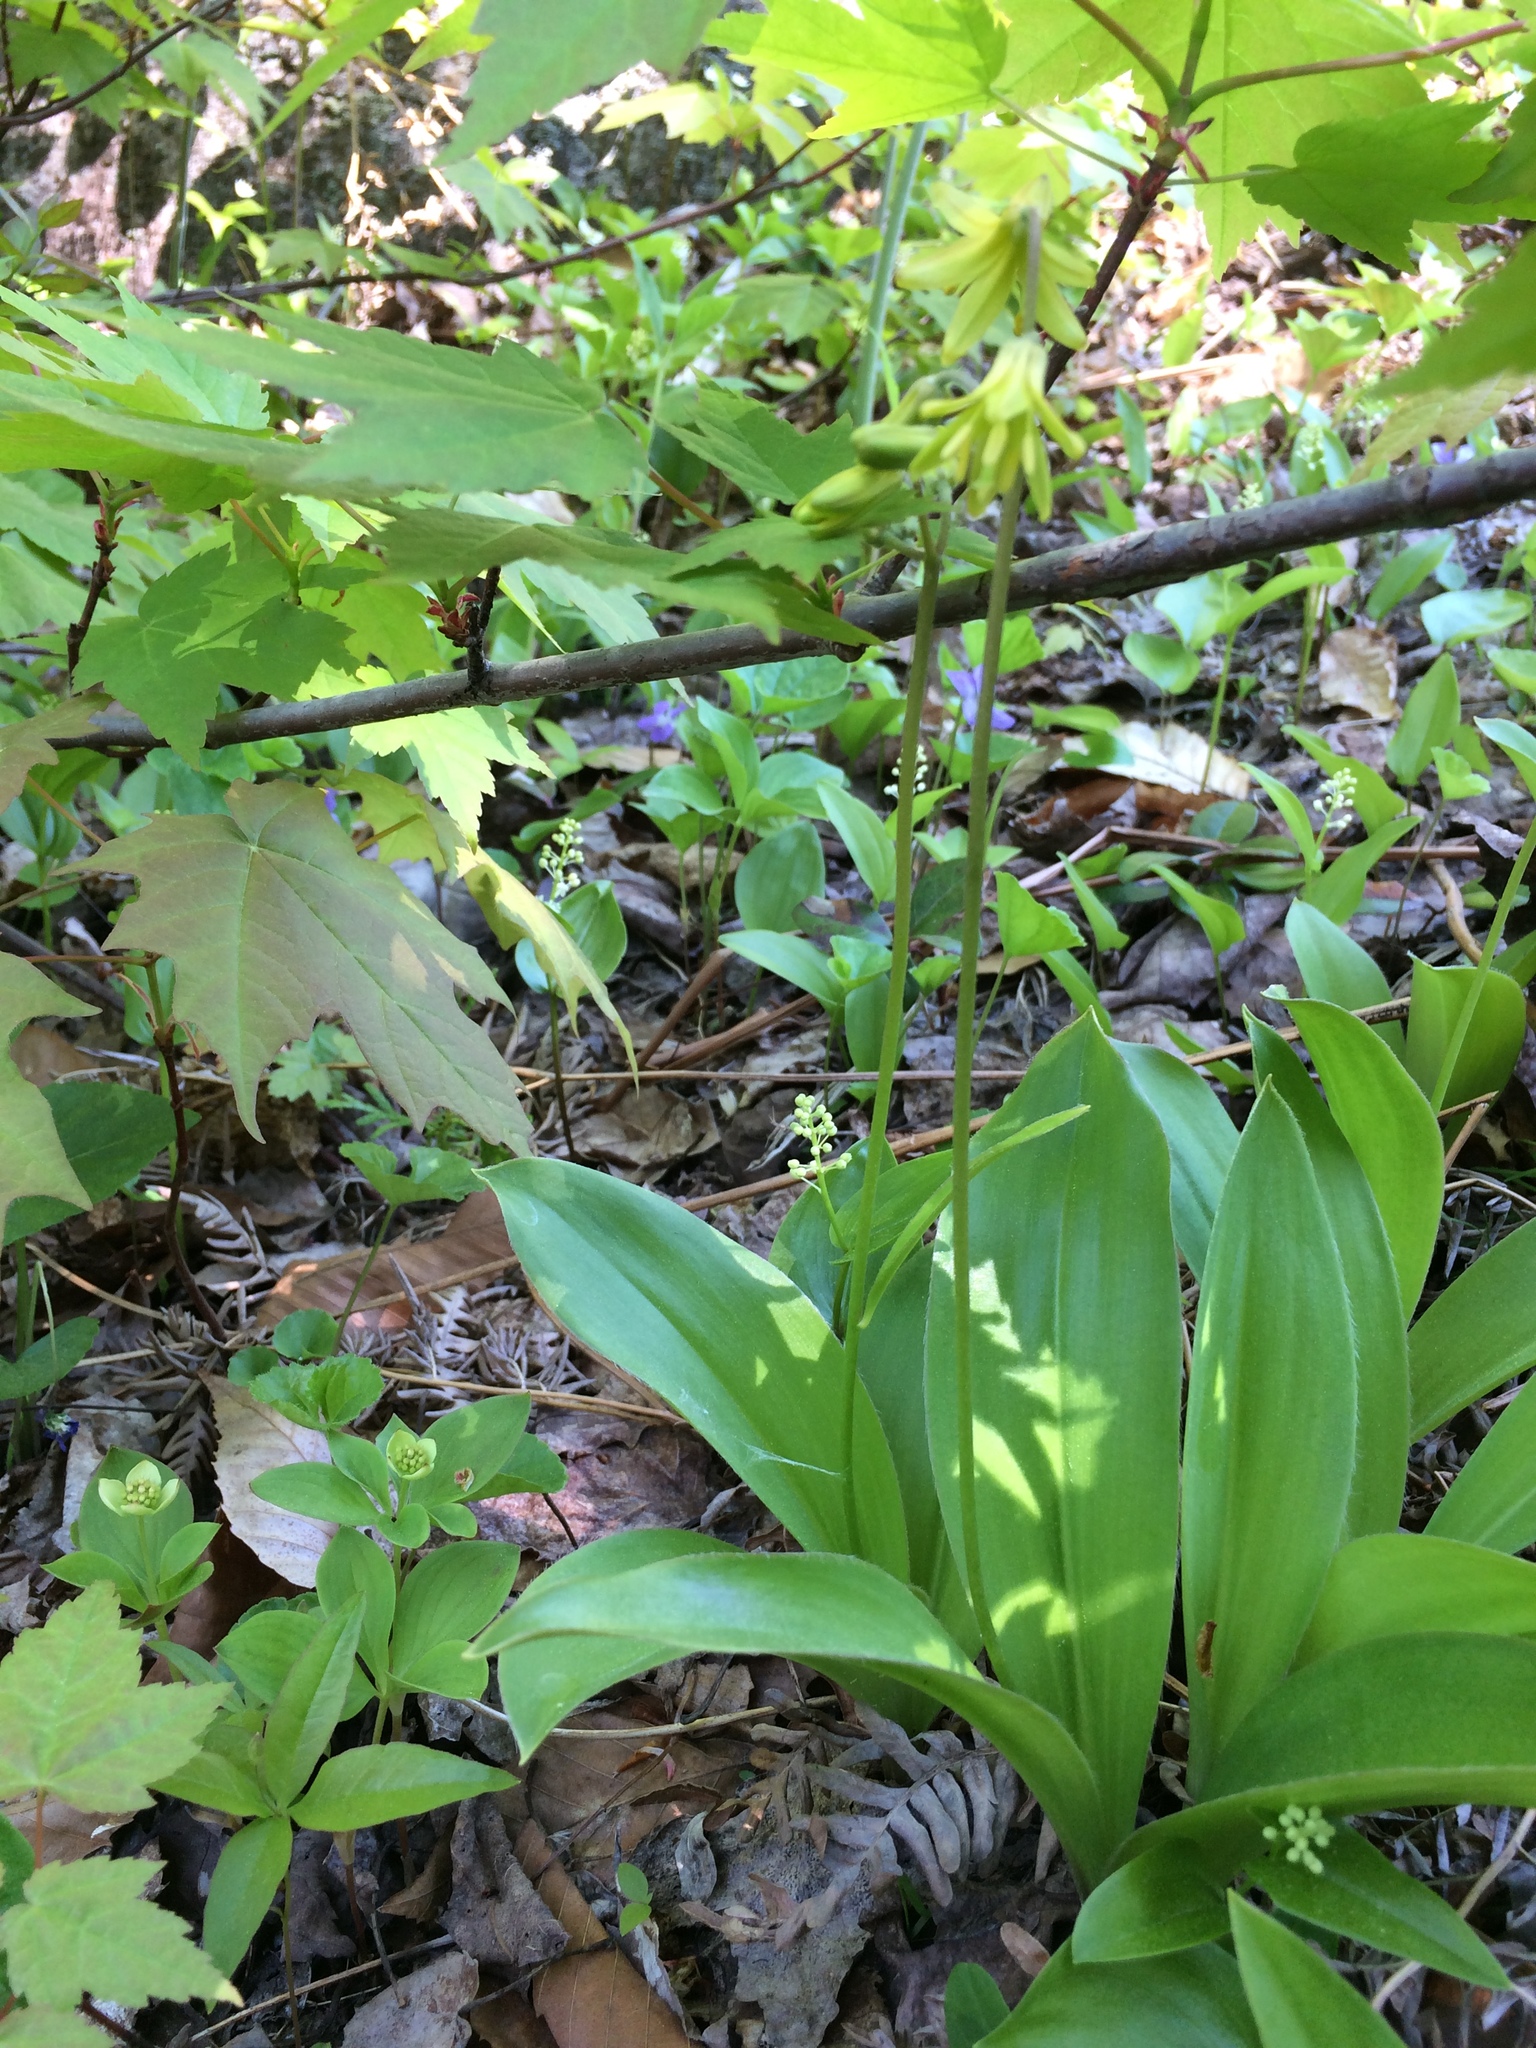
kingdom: Plantae
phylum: Tracheophyta
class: Liliopsida
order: Liliales
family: Liliaceae
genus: Clintonia
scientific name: Clintonia borealis
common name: Yellow clintonia
